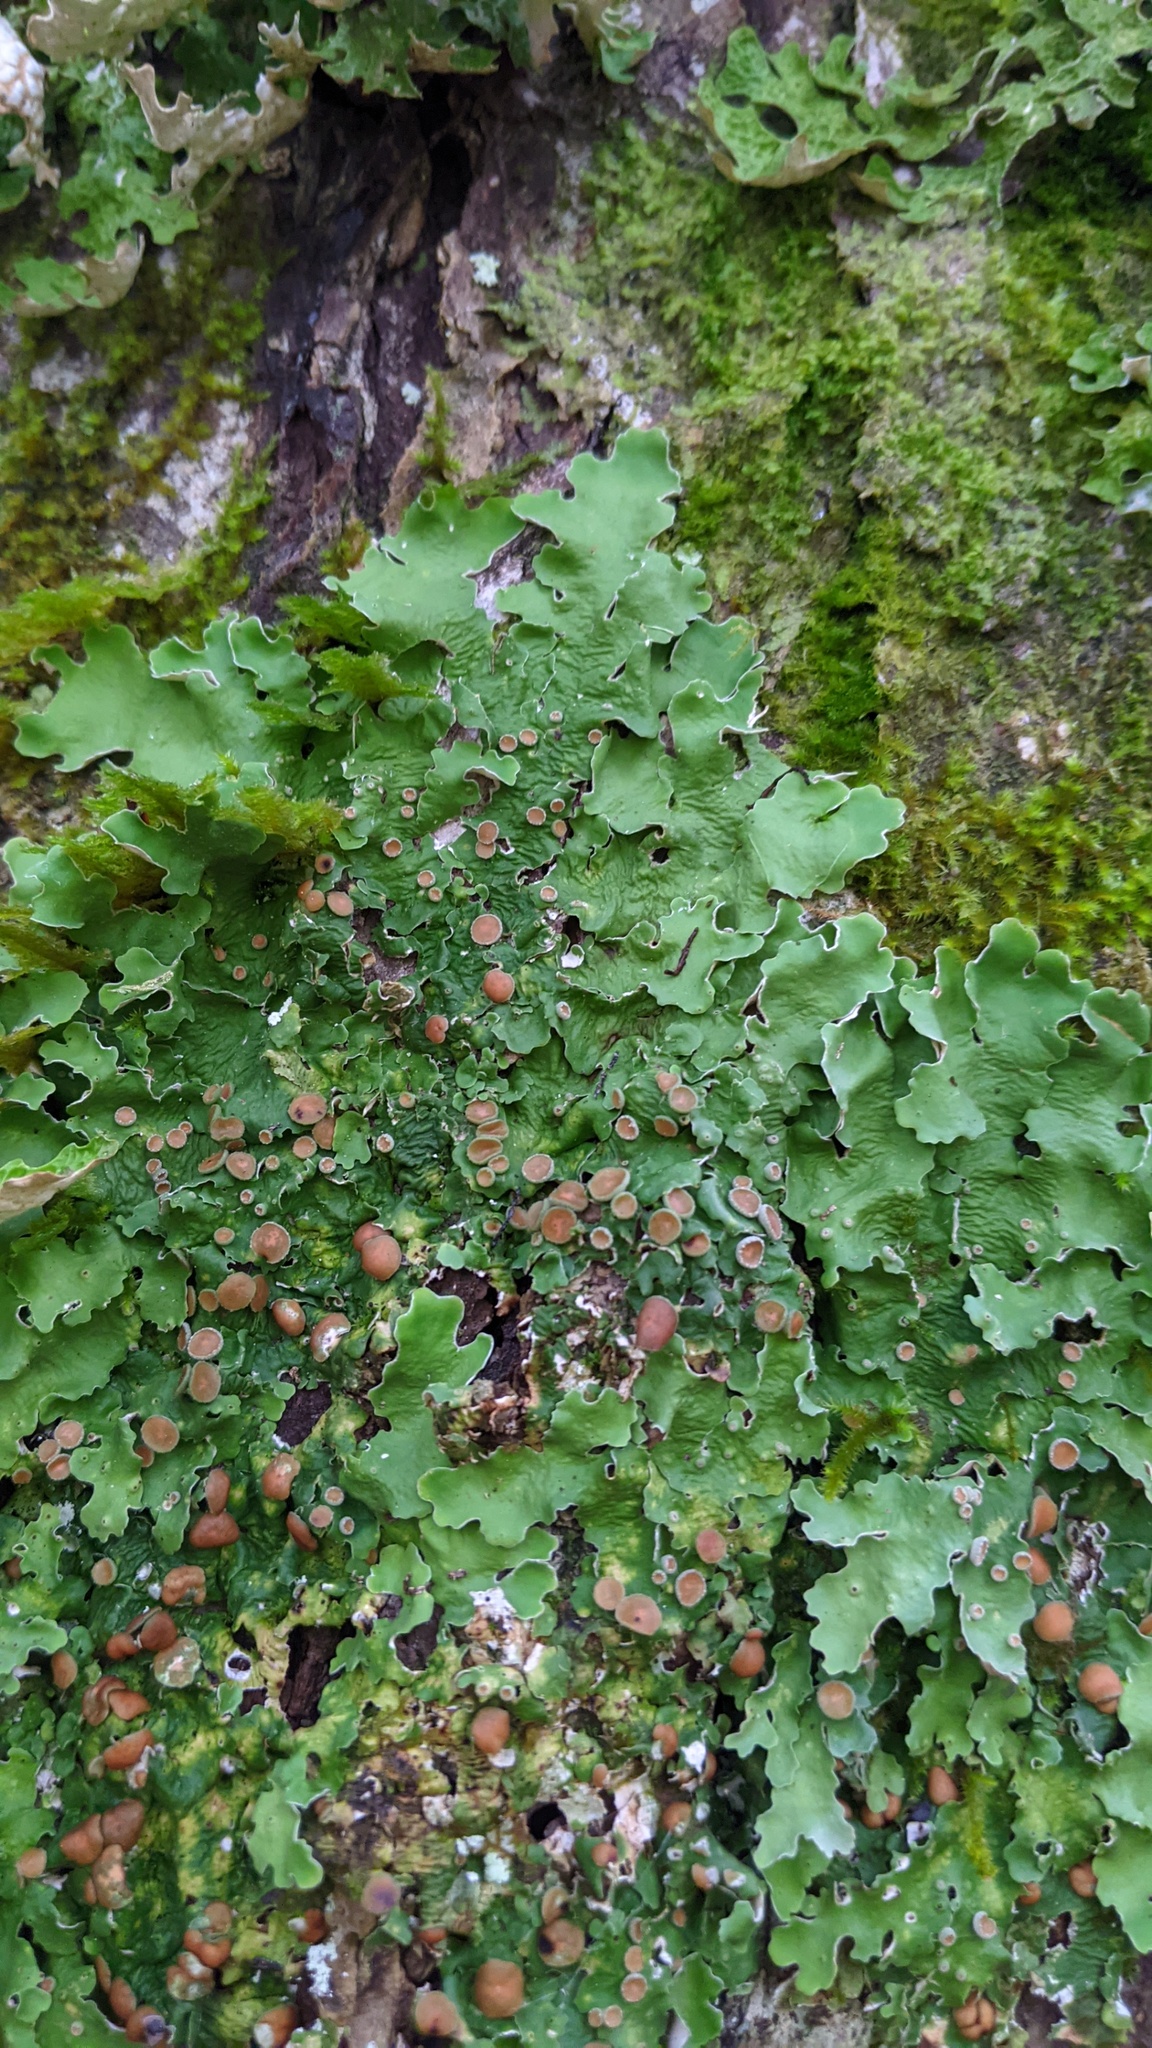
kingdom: Fungi
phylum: Ascomycota
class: Lecanoromycetes
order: Peltigerales
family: Lobariaceae
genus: Ricasolia
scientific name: Ricasolia quercizans
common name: Smooth lungwort
